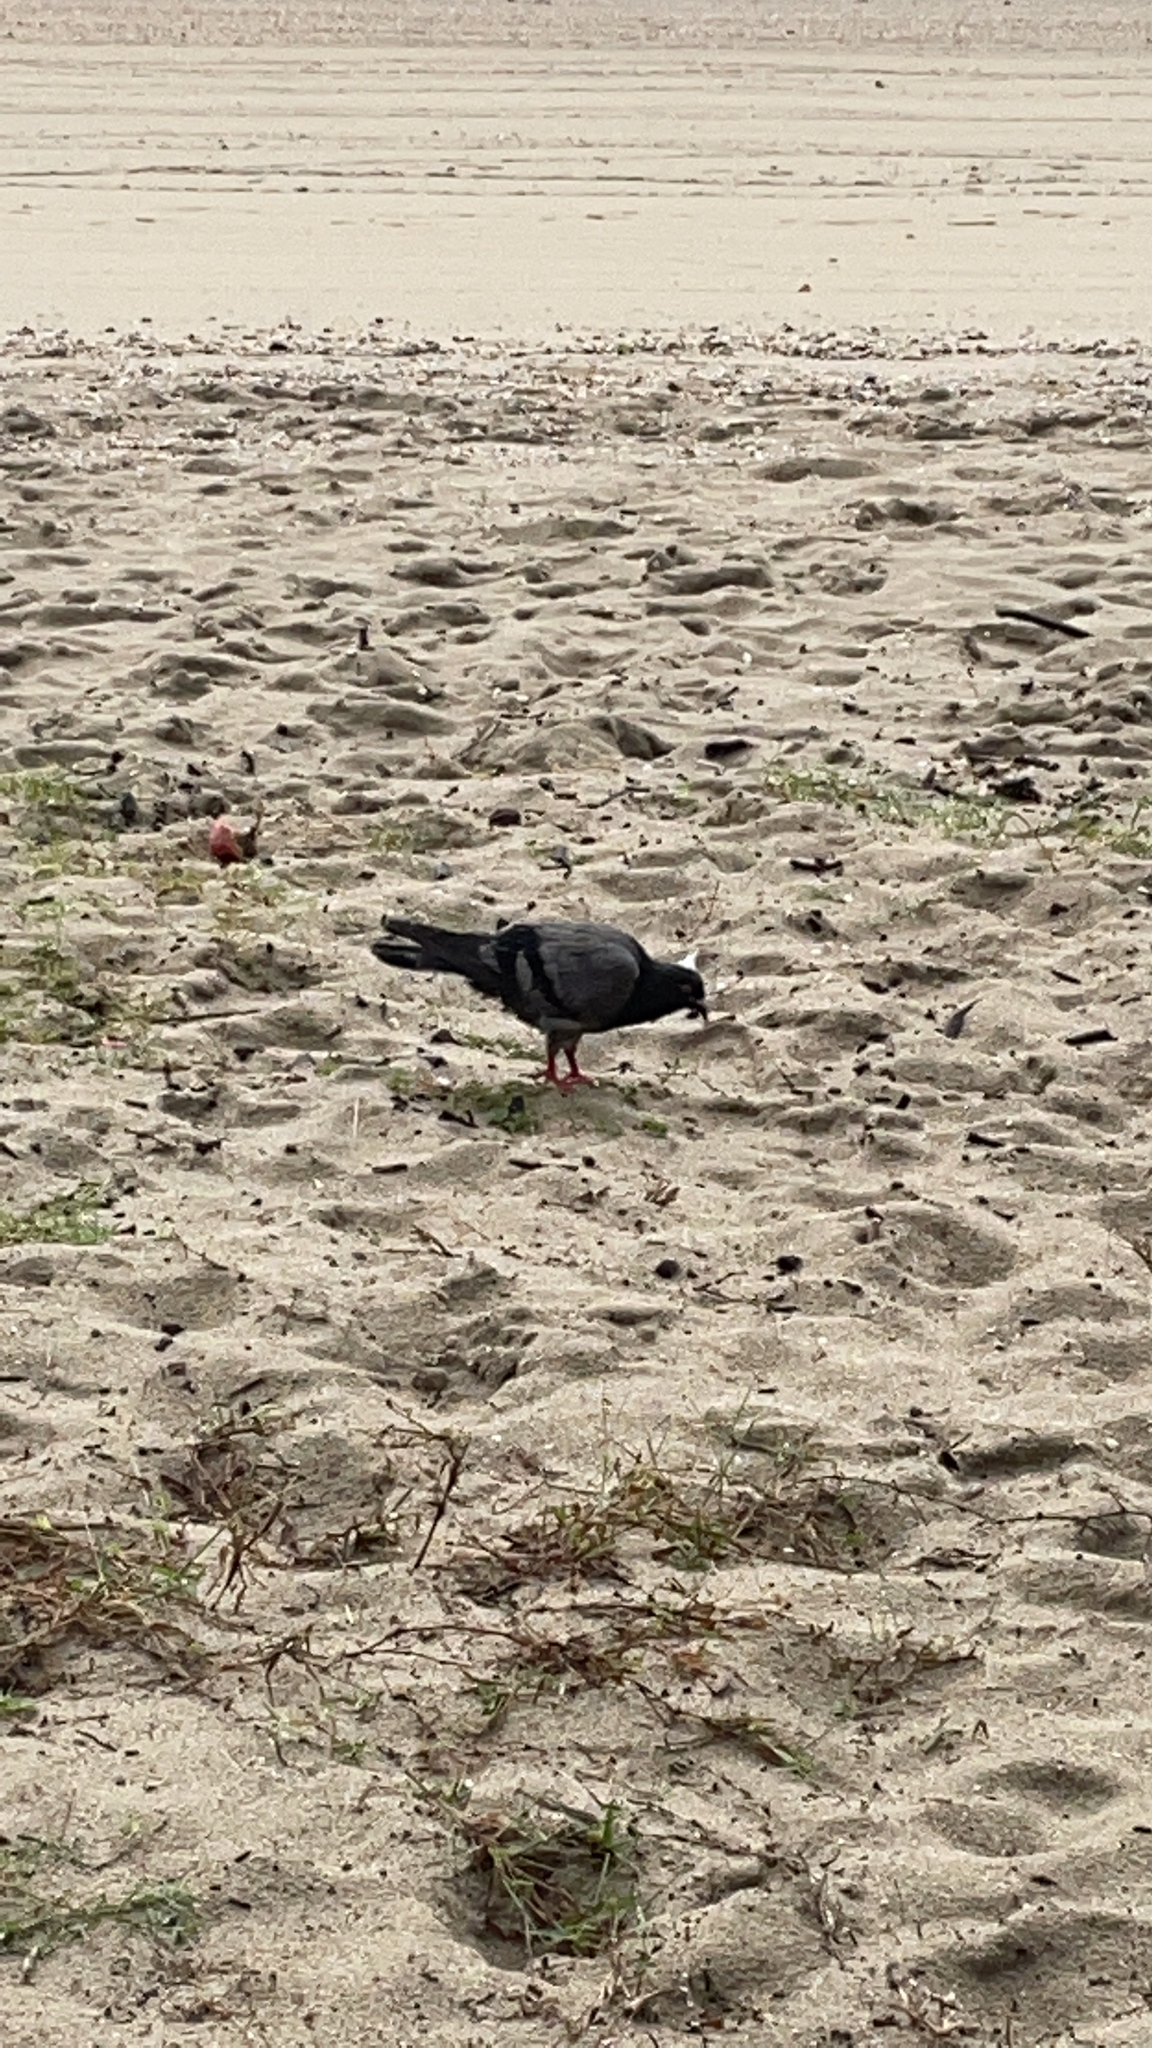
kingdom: Animalia
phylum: Chordata
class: Aves
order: Columbiformes
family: Columbidae
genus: Columba
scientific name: Columba livia
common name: Rock pigeon
